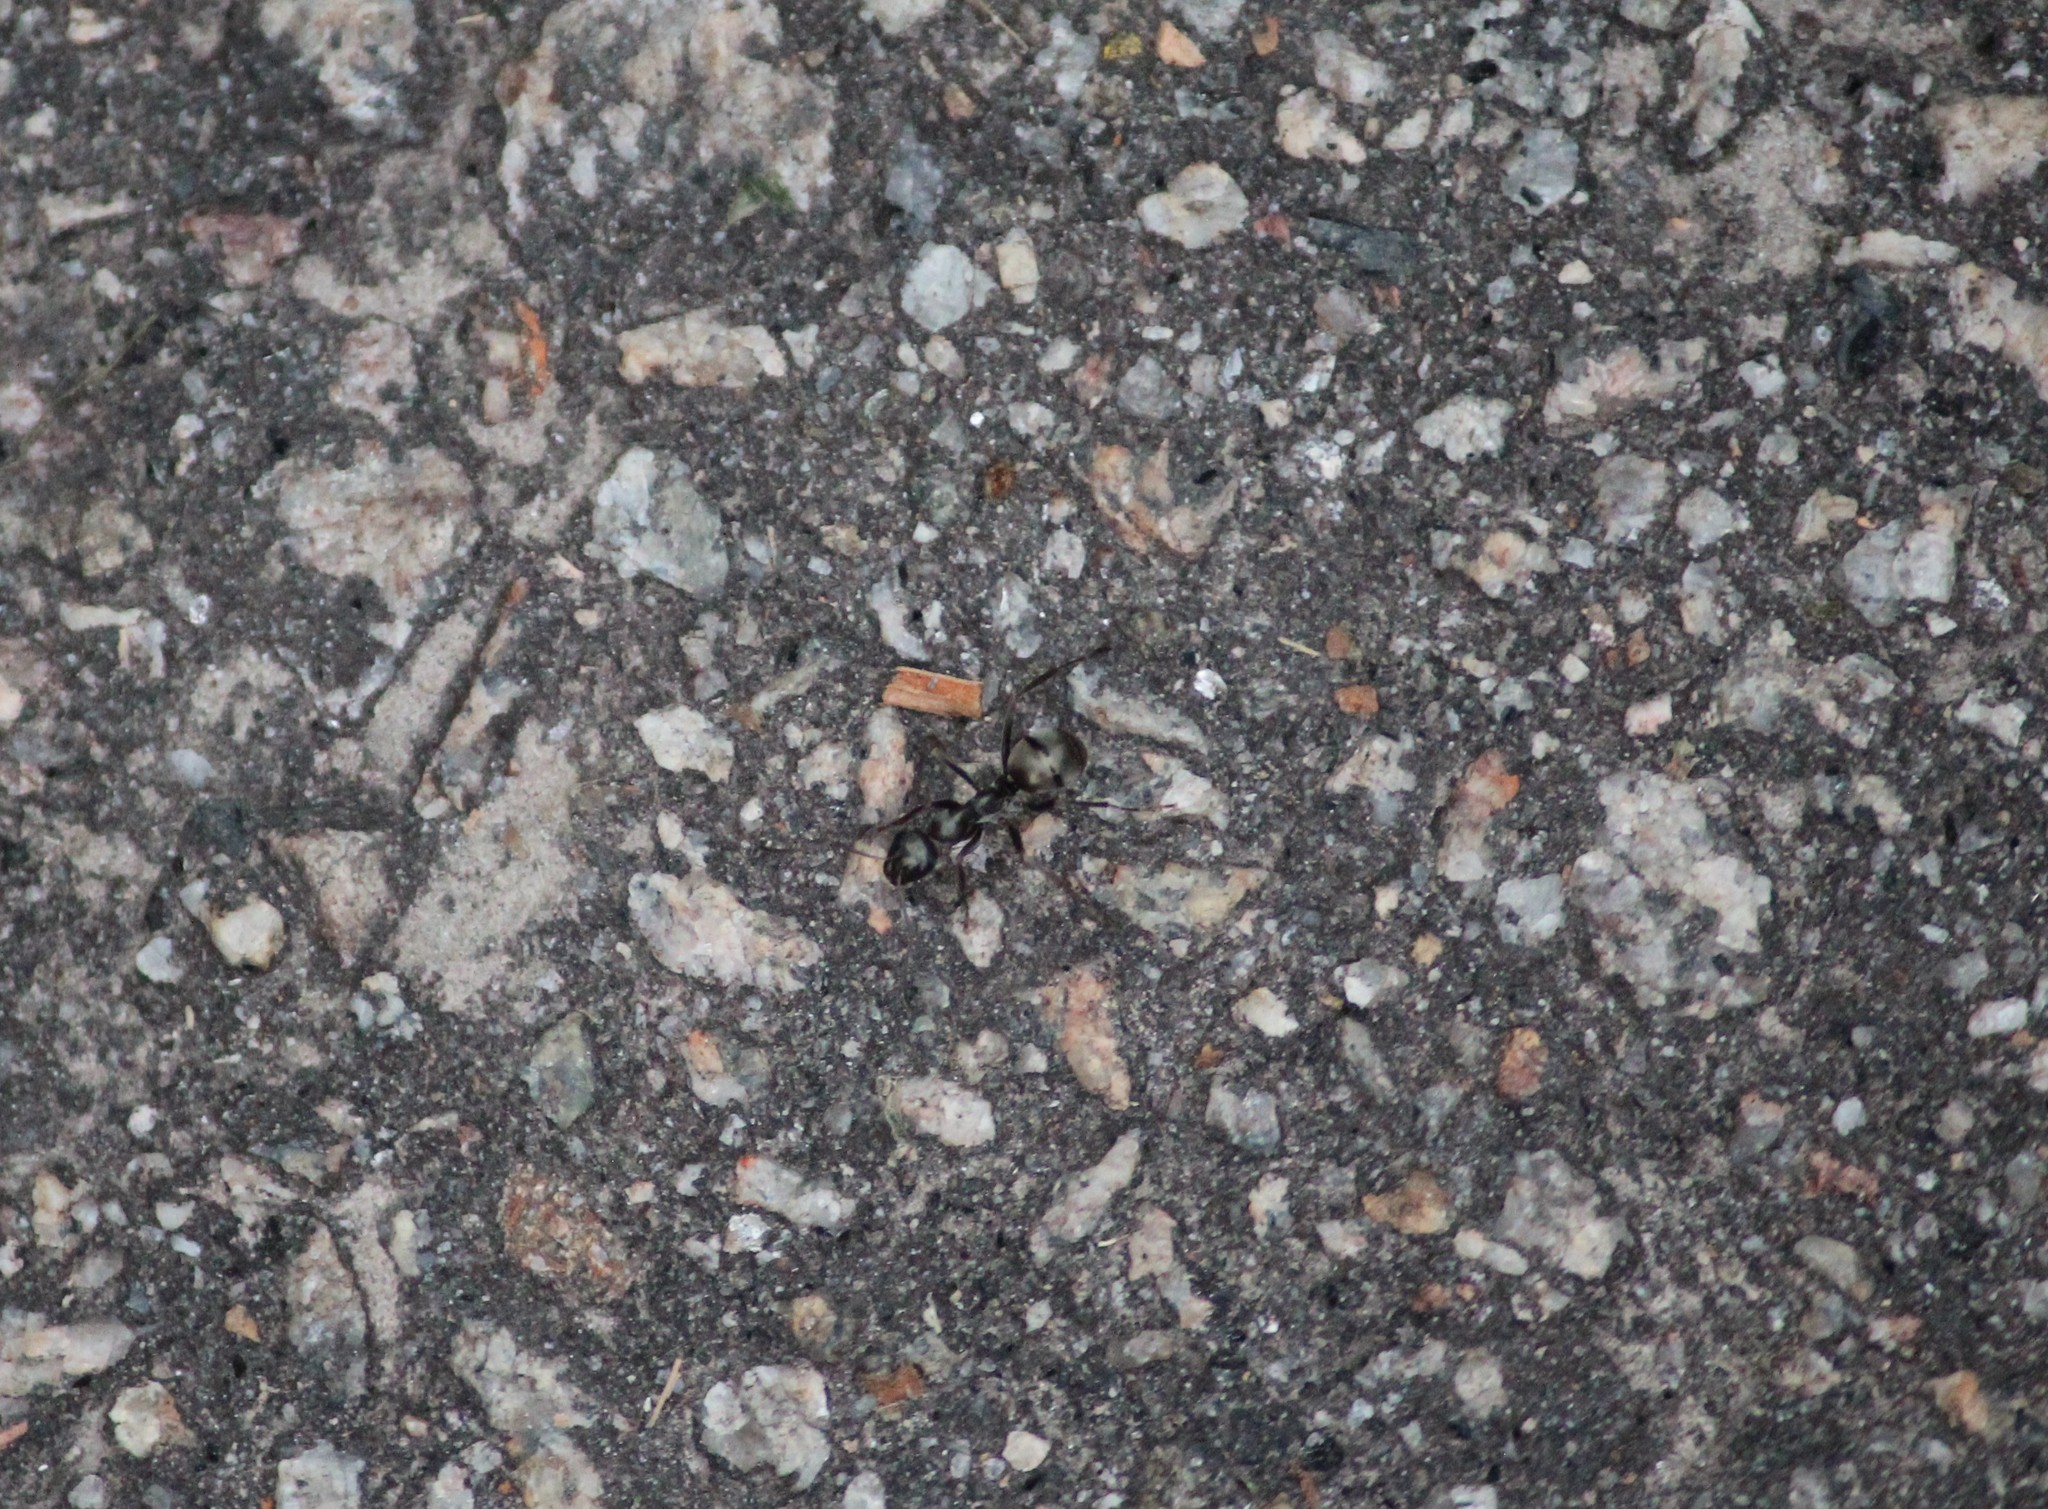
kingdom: Animalia
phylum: Arthropoda
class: Insecta
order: Hymenoptera
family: Formicidae
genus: Formica
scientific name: Formica subsericea
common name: Silky field ant
